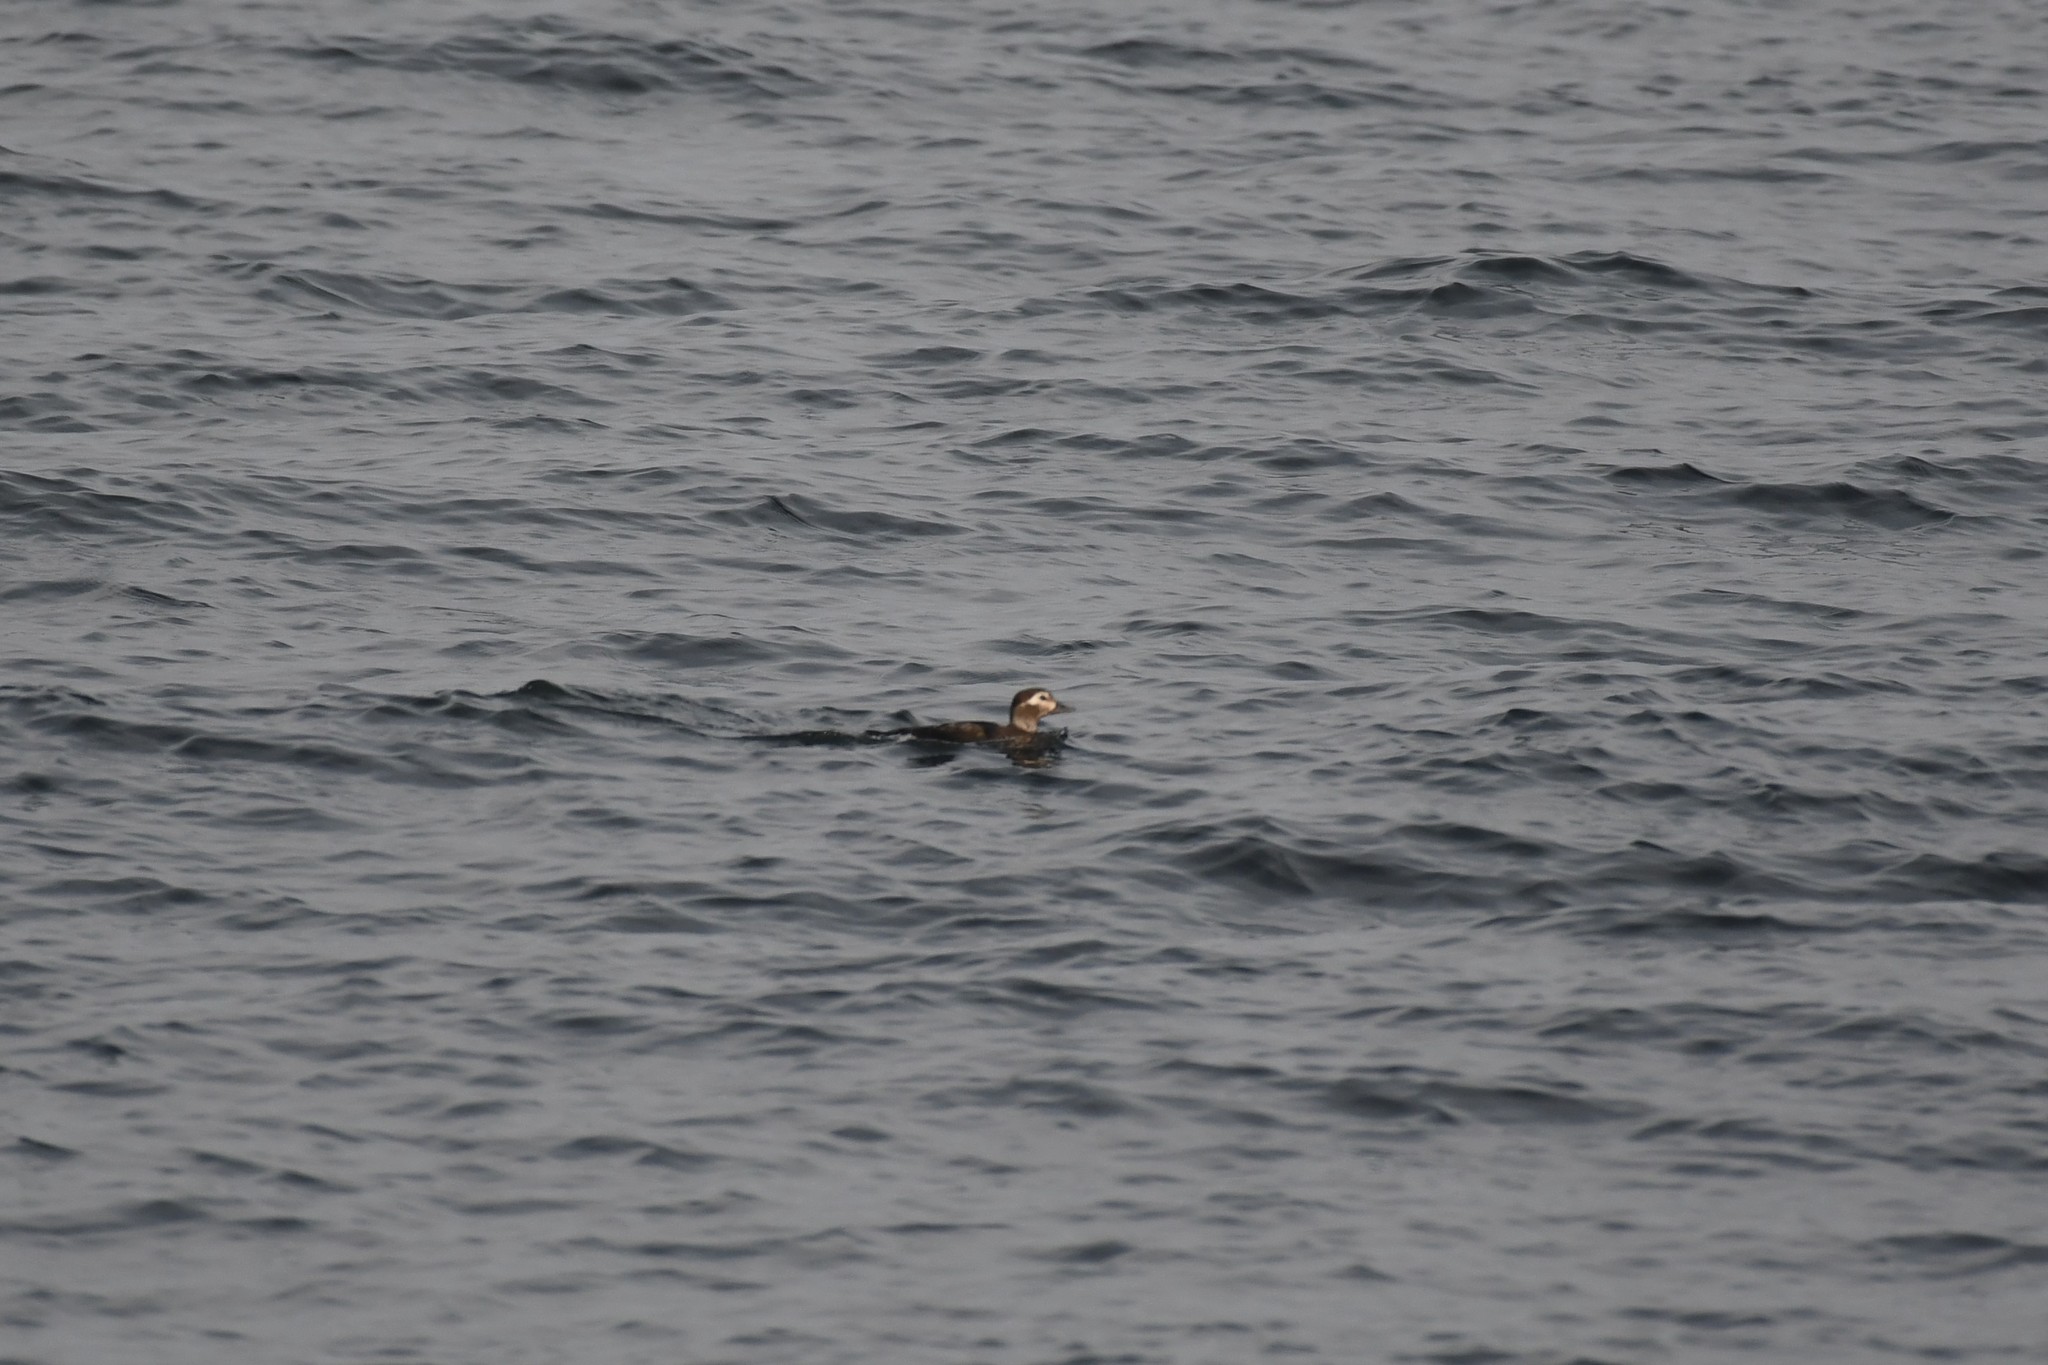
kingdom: Animalia
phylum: Chordata
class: Aves
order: Anseriformes
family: Anatidae
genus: Clangula
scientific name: Clangula hyemalis
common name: Long-tailed duck
